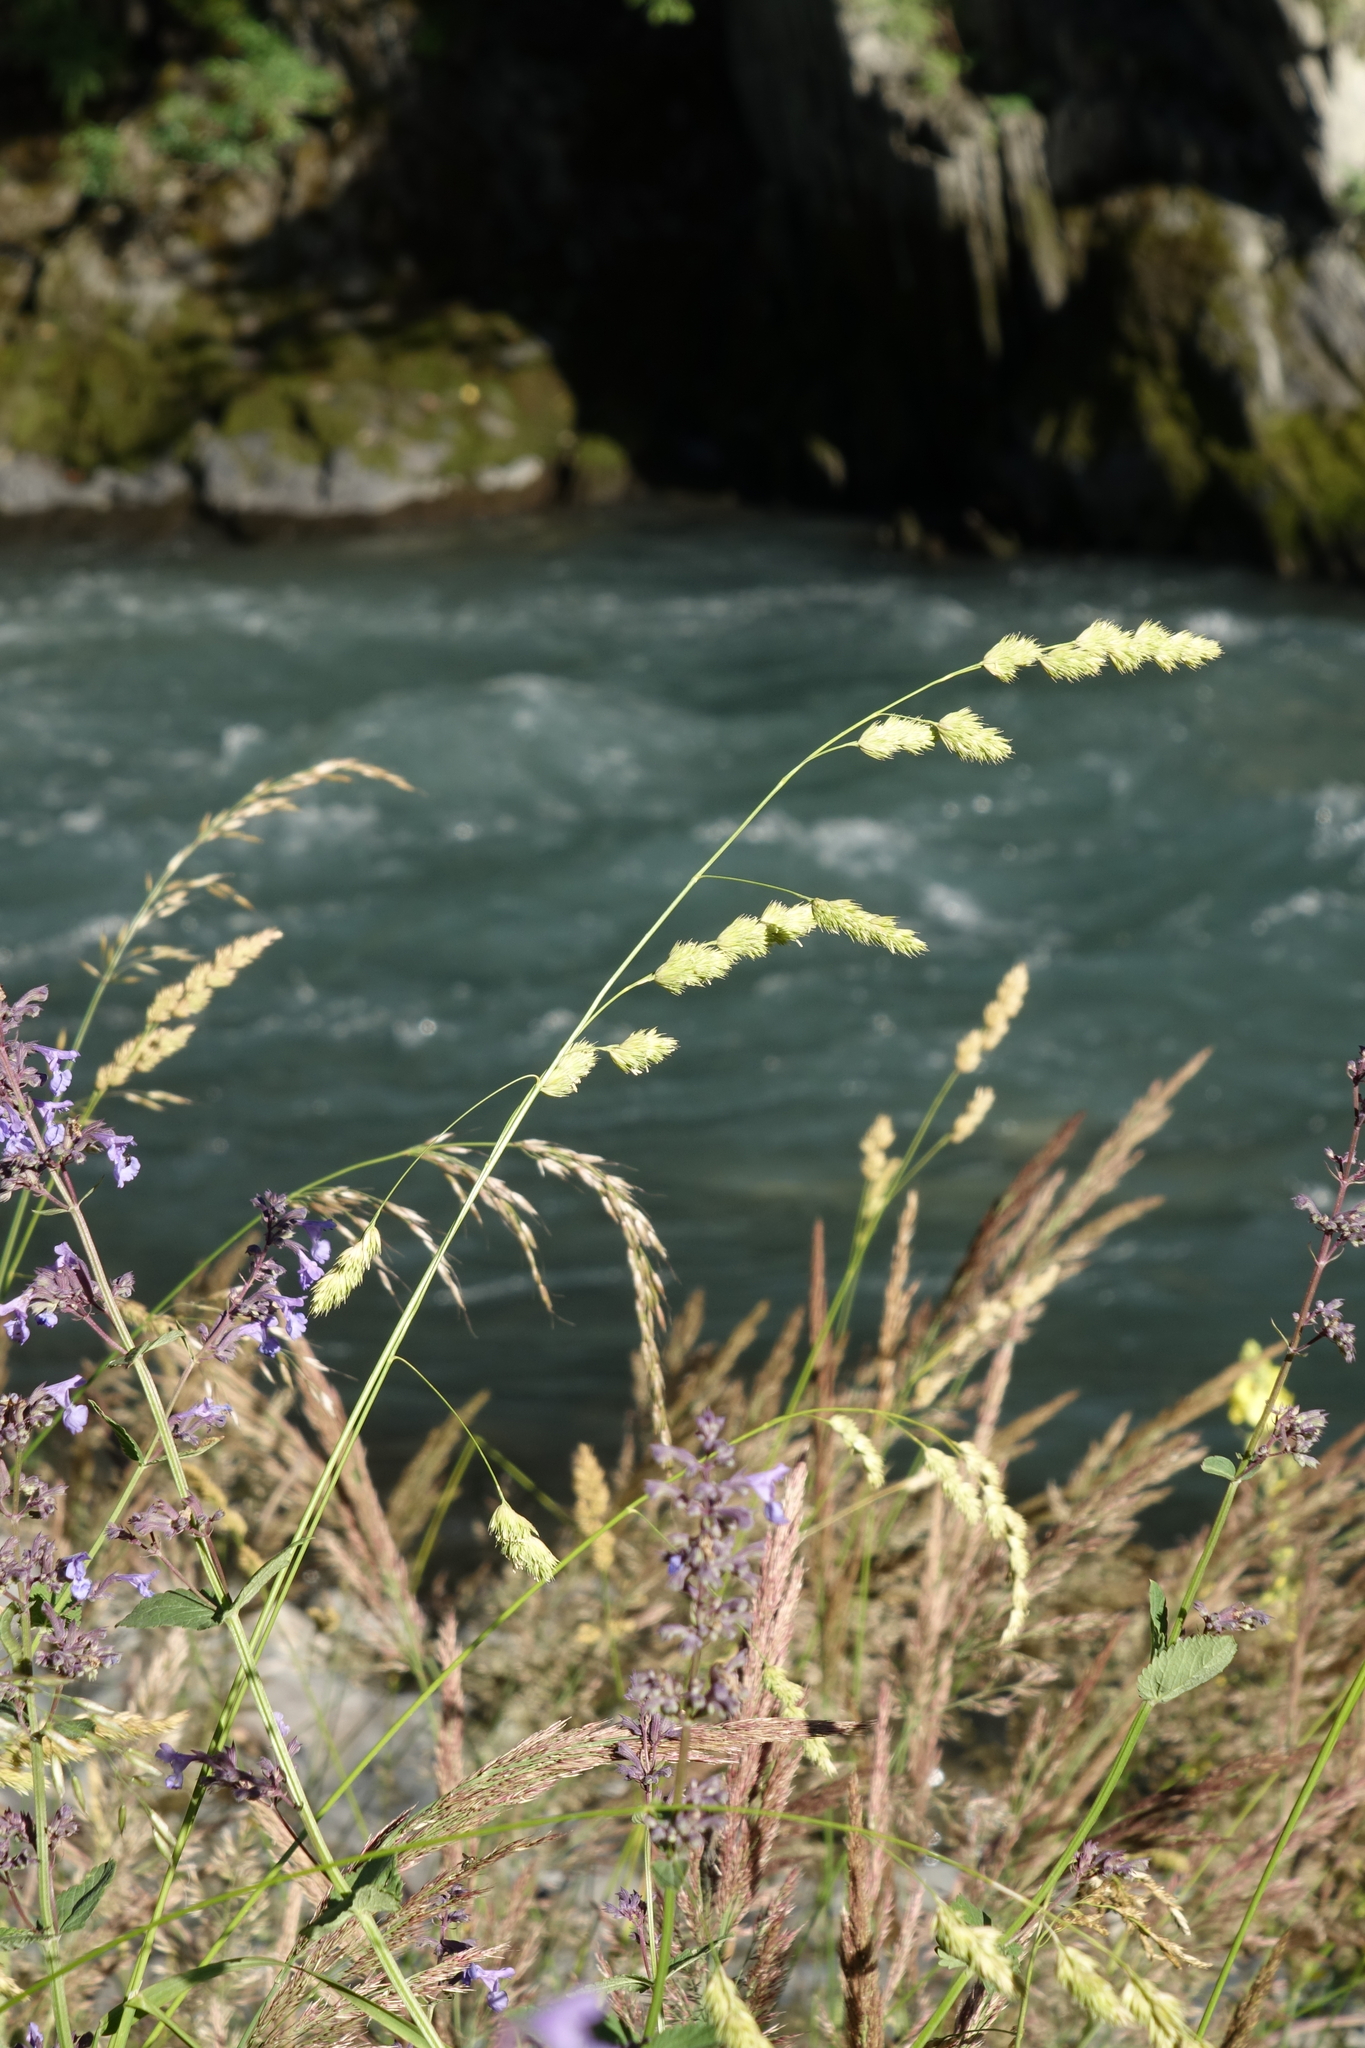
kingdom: Plantae
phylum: Tracheophyta
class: Liliopsida
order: Poales
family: Poaceae
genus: Dactylis
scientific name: Dactylis glomerata
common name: Orchardgrass
